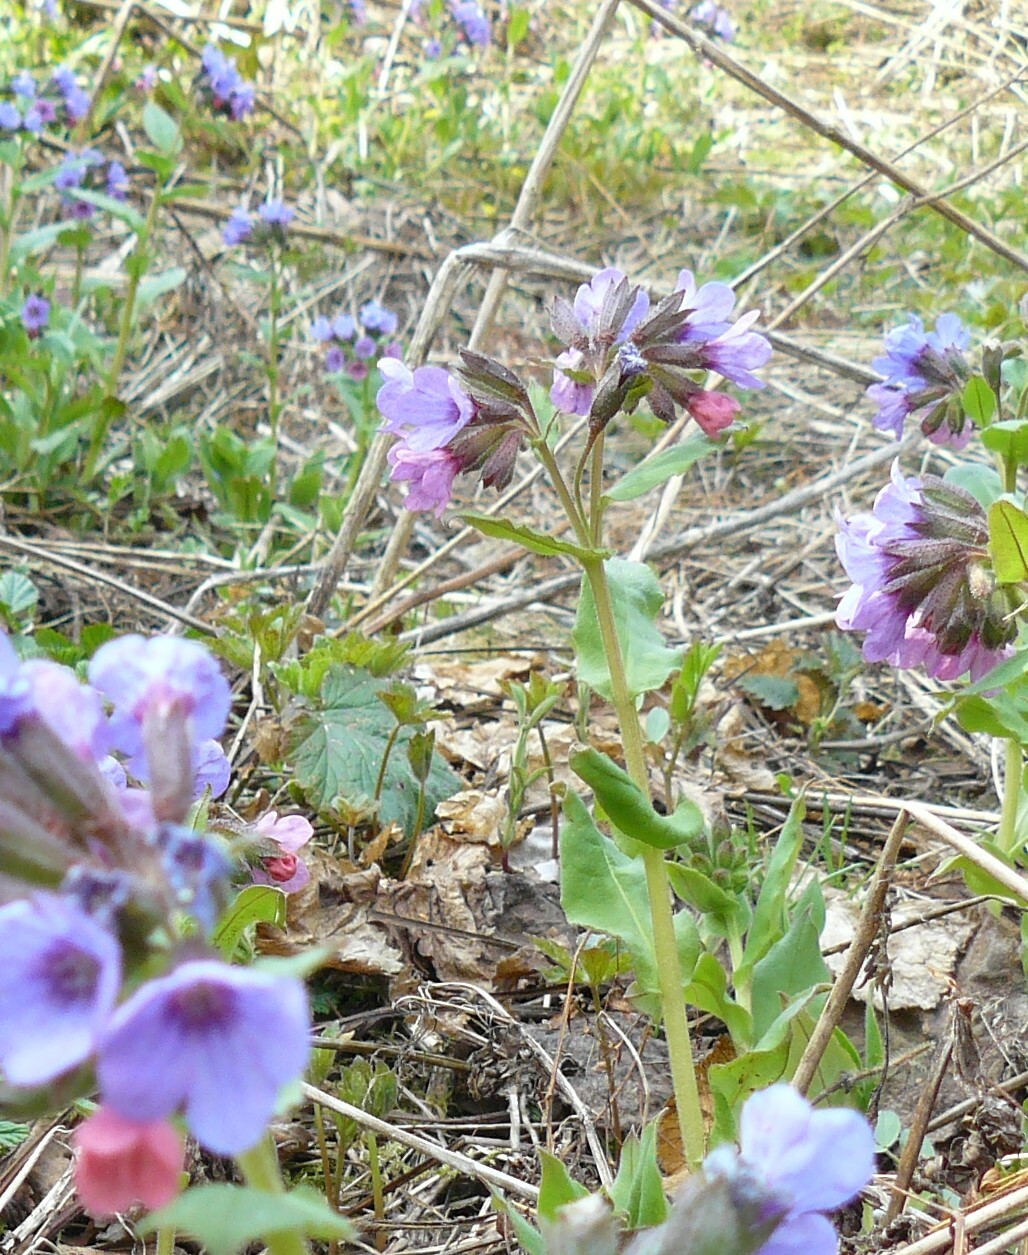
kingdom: Plantae
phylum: Tracheophyta
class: Magnoliopsida
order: Boraginales
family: Boraginaceae
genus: Pulmonaria
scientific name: Pulmonaria obscura
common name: Suffolk lungwort
